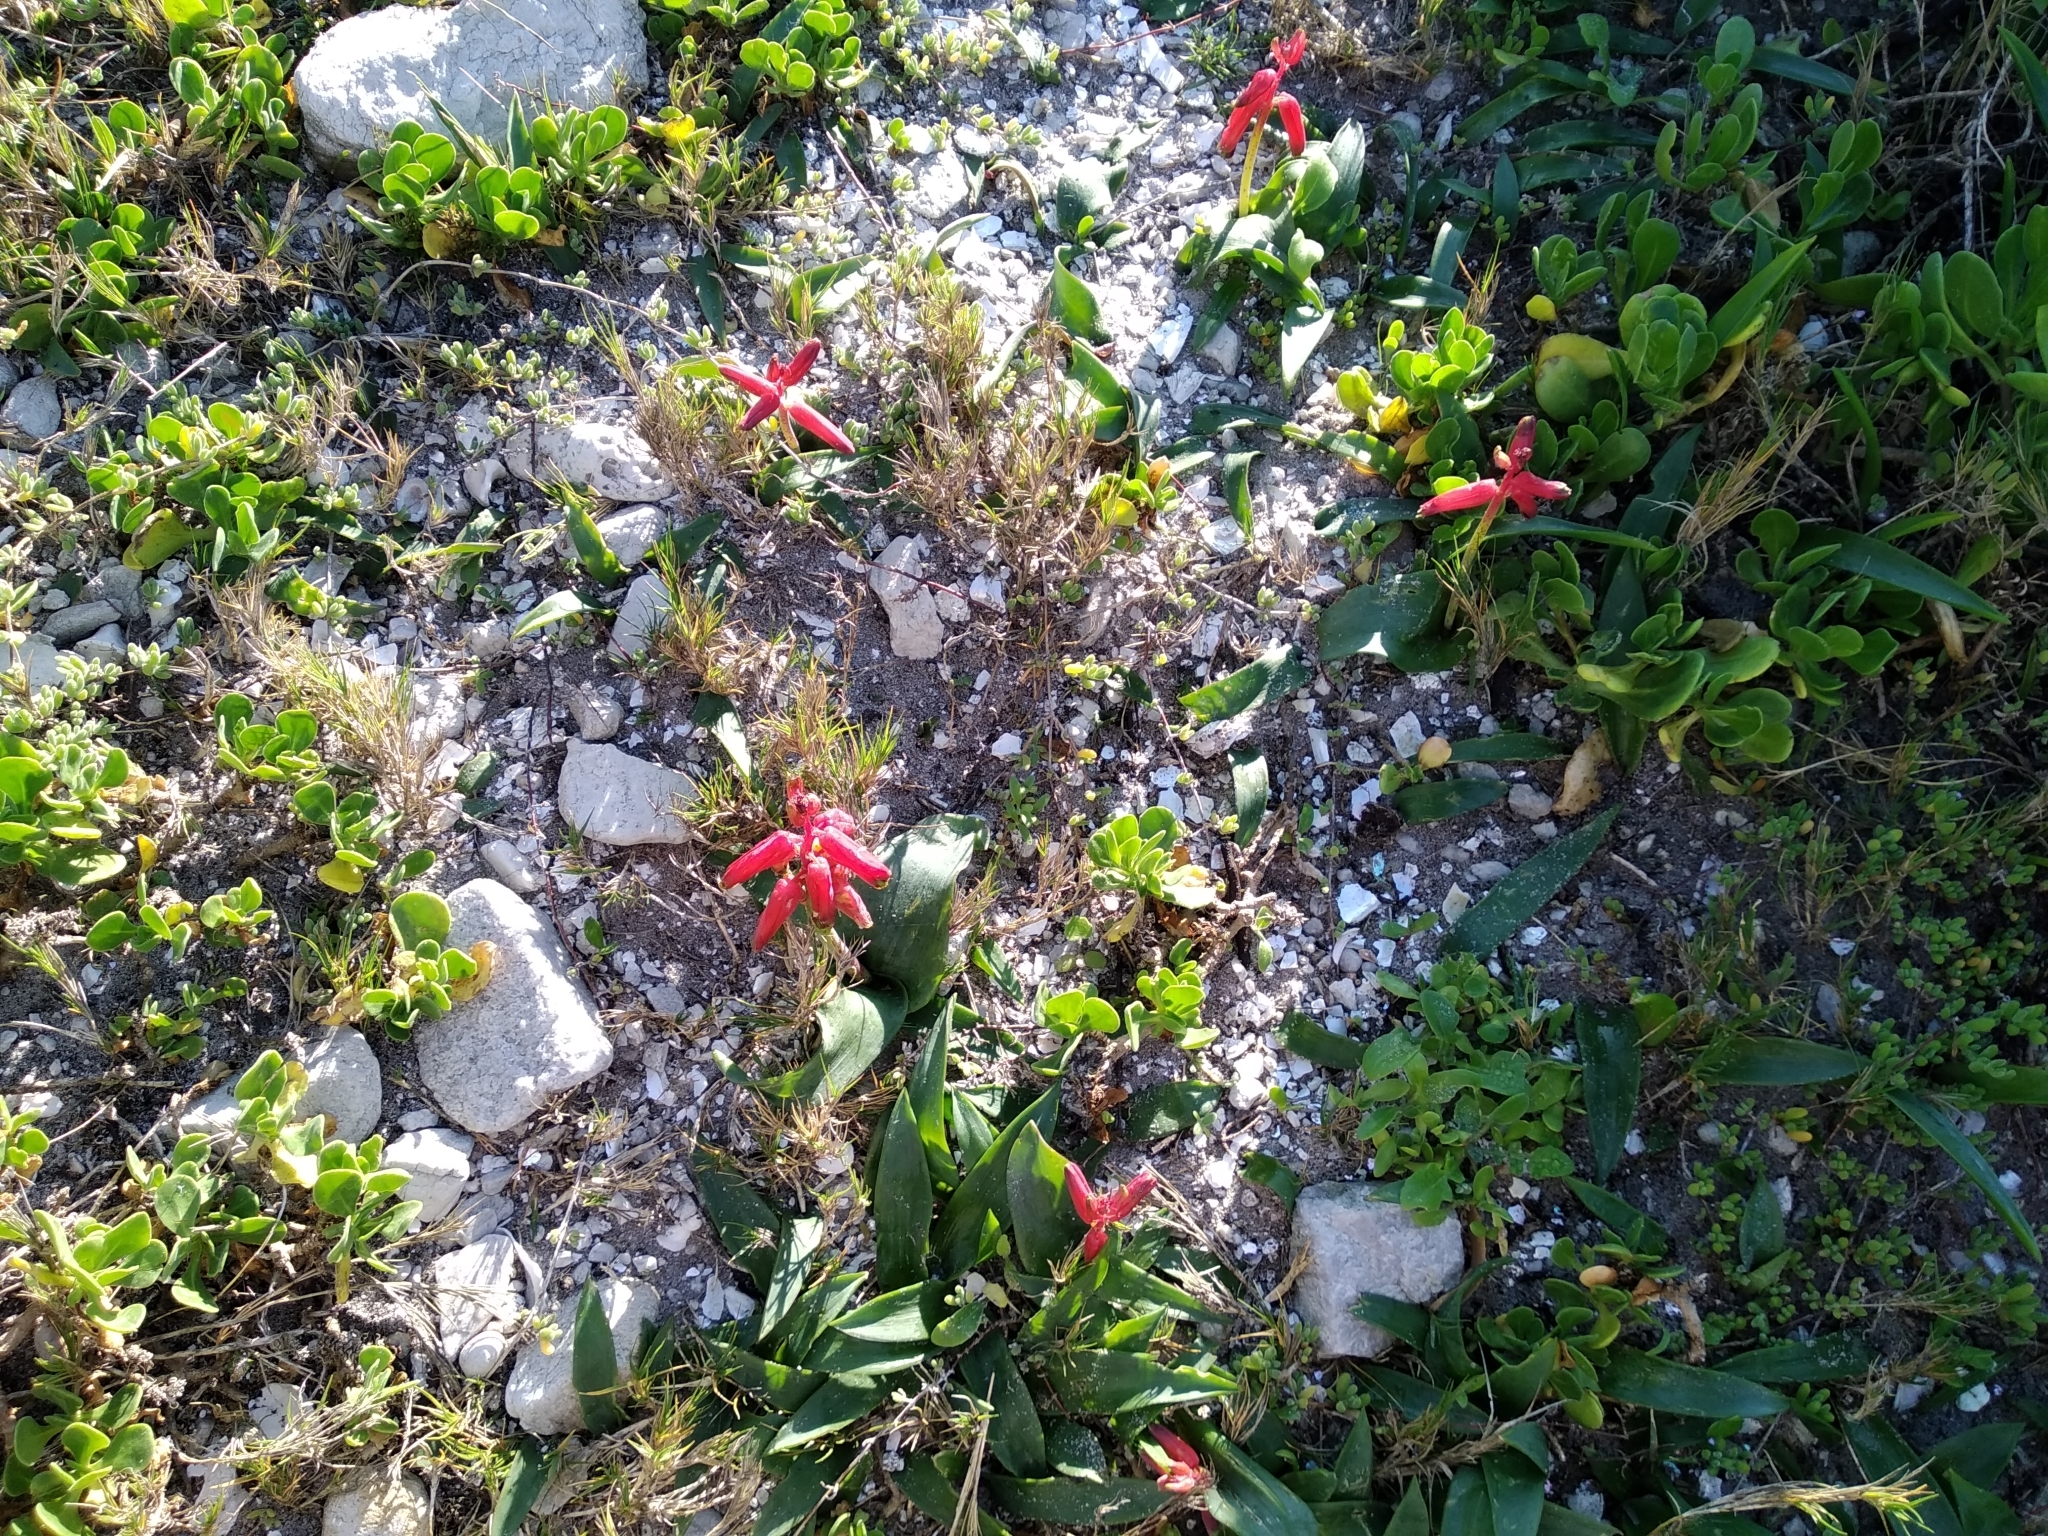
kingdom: Plantae
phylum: Tracheophyta
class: Liliopsida
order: Asparagales
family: Asparagaceae
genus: Lachenalia
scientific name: Lachenalia bulbifera
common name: Red lachenalia
